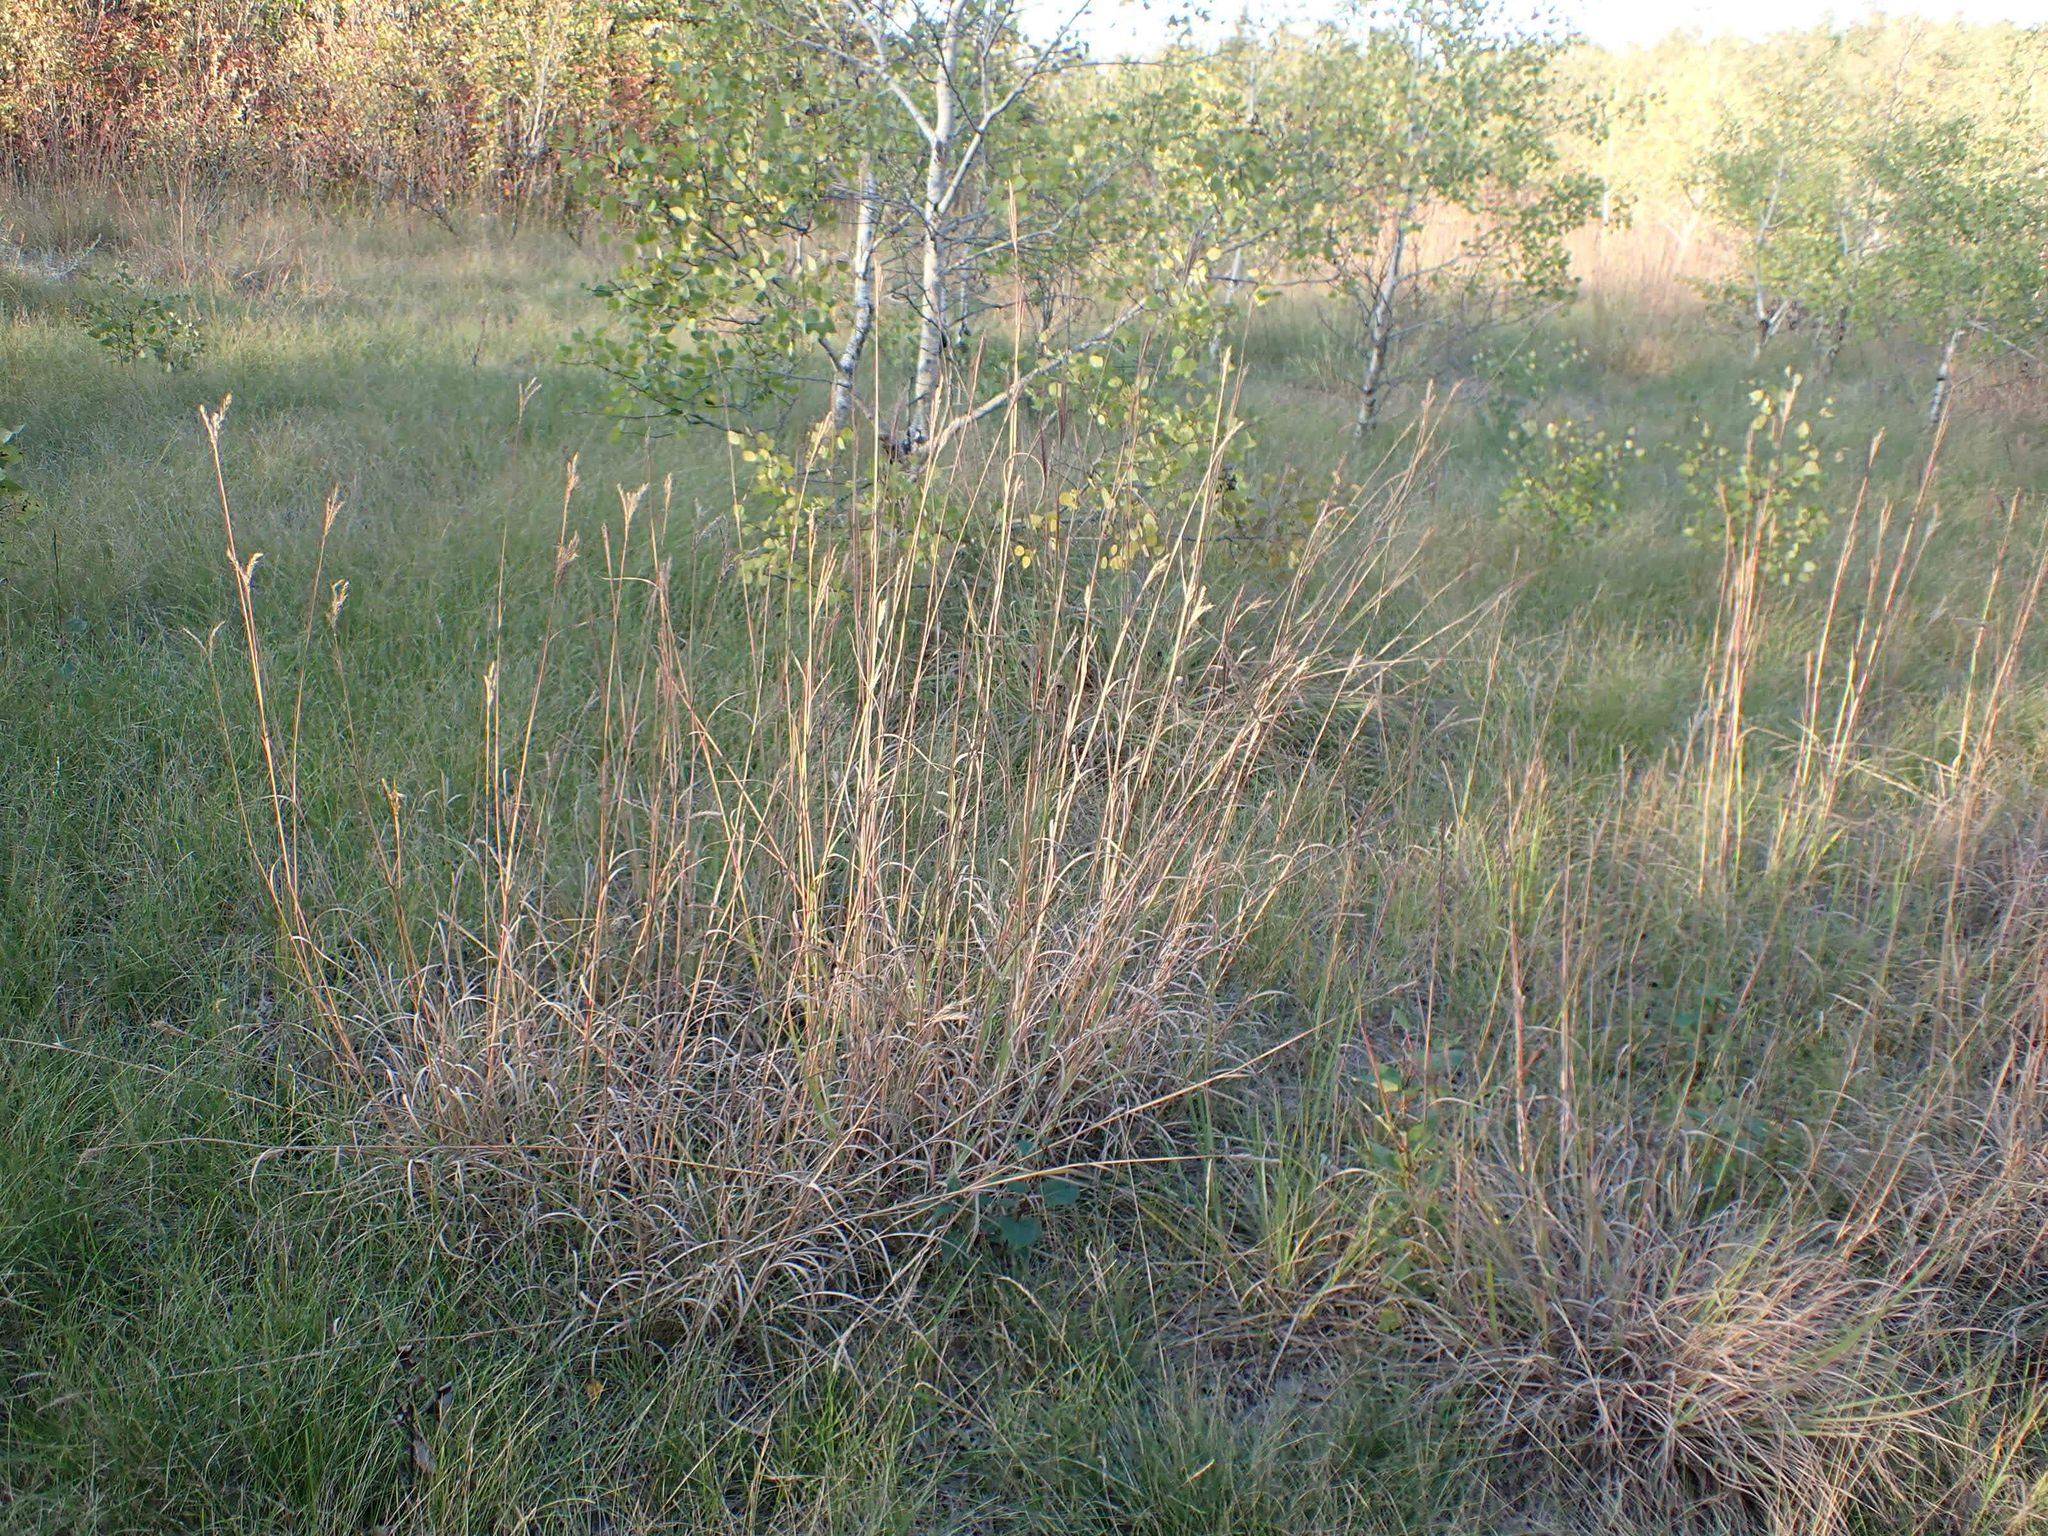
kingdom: Plantae
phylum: Tracheophyta
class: Liliopsida
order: Poales
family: Poaceae
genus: Andropogon
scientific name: Andropogon gerardi
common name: Big bluestem
